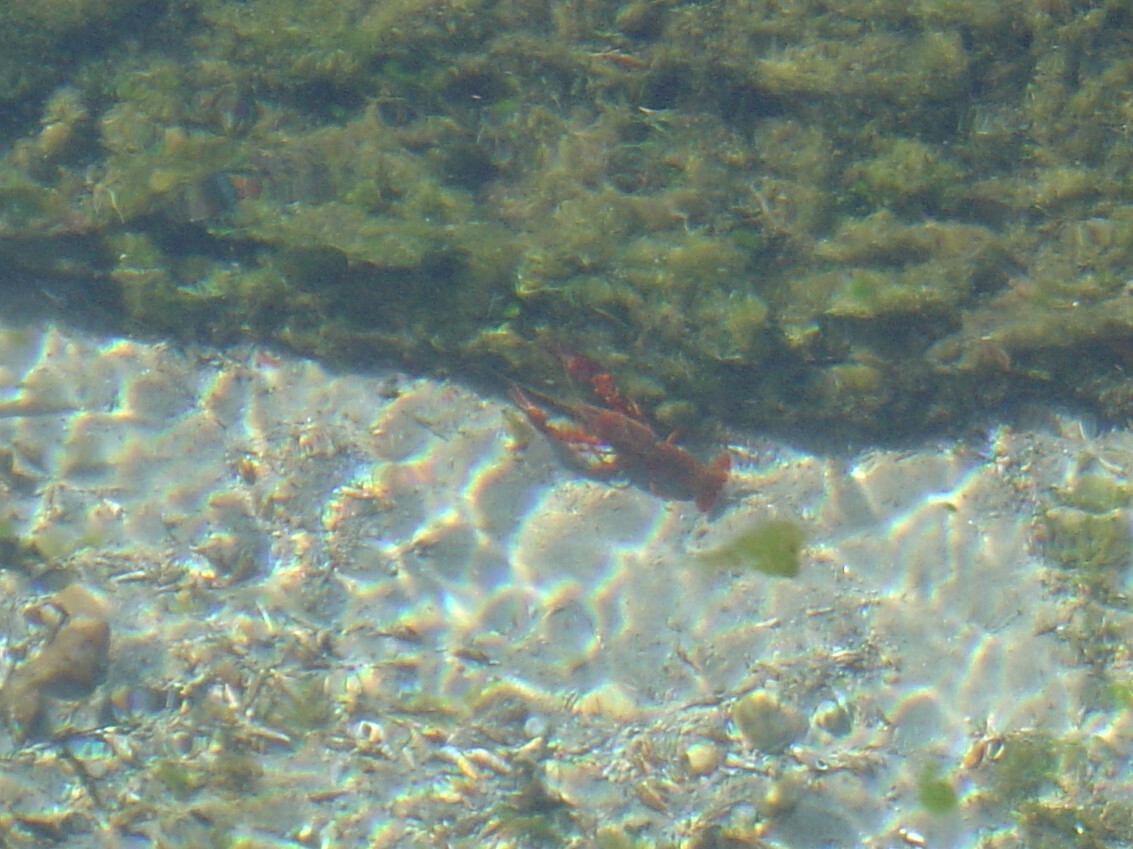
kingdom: Animalia
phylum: Arthropoda
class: Malacostraca
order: Decapoda
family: Cambaridae
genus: Procambarus
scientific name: Procambarus clarkii
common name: Red swamp crayfish
